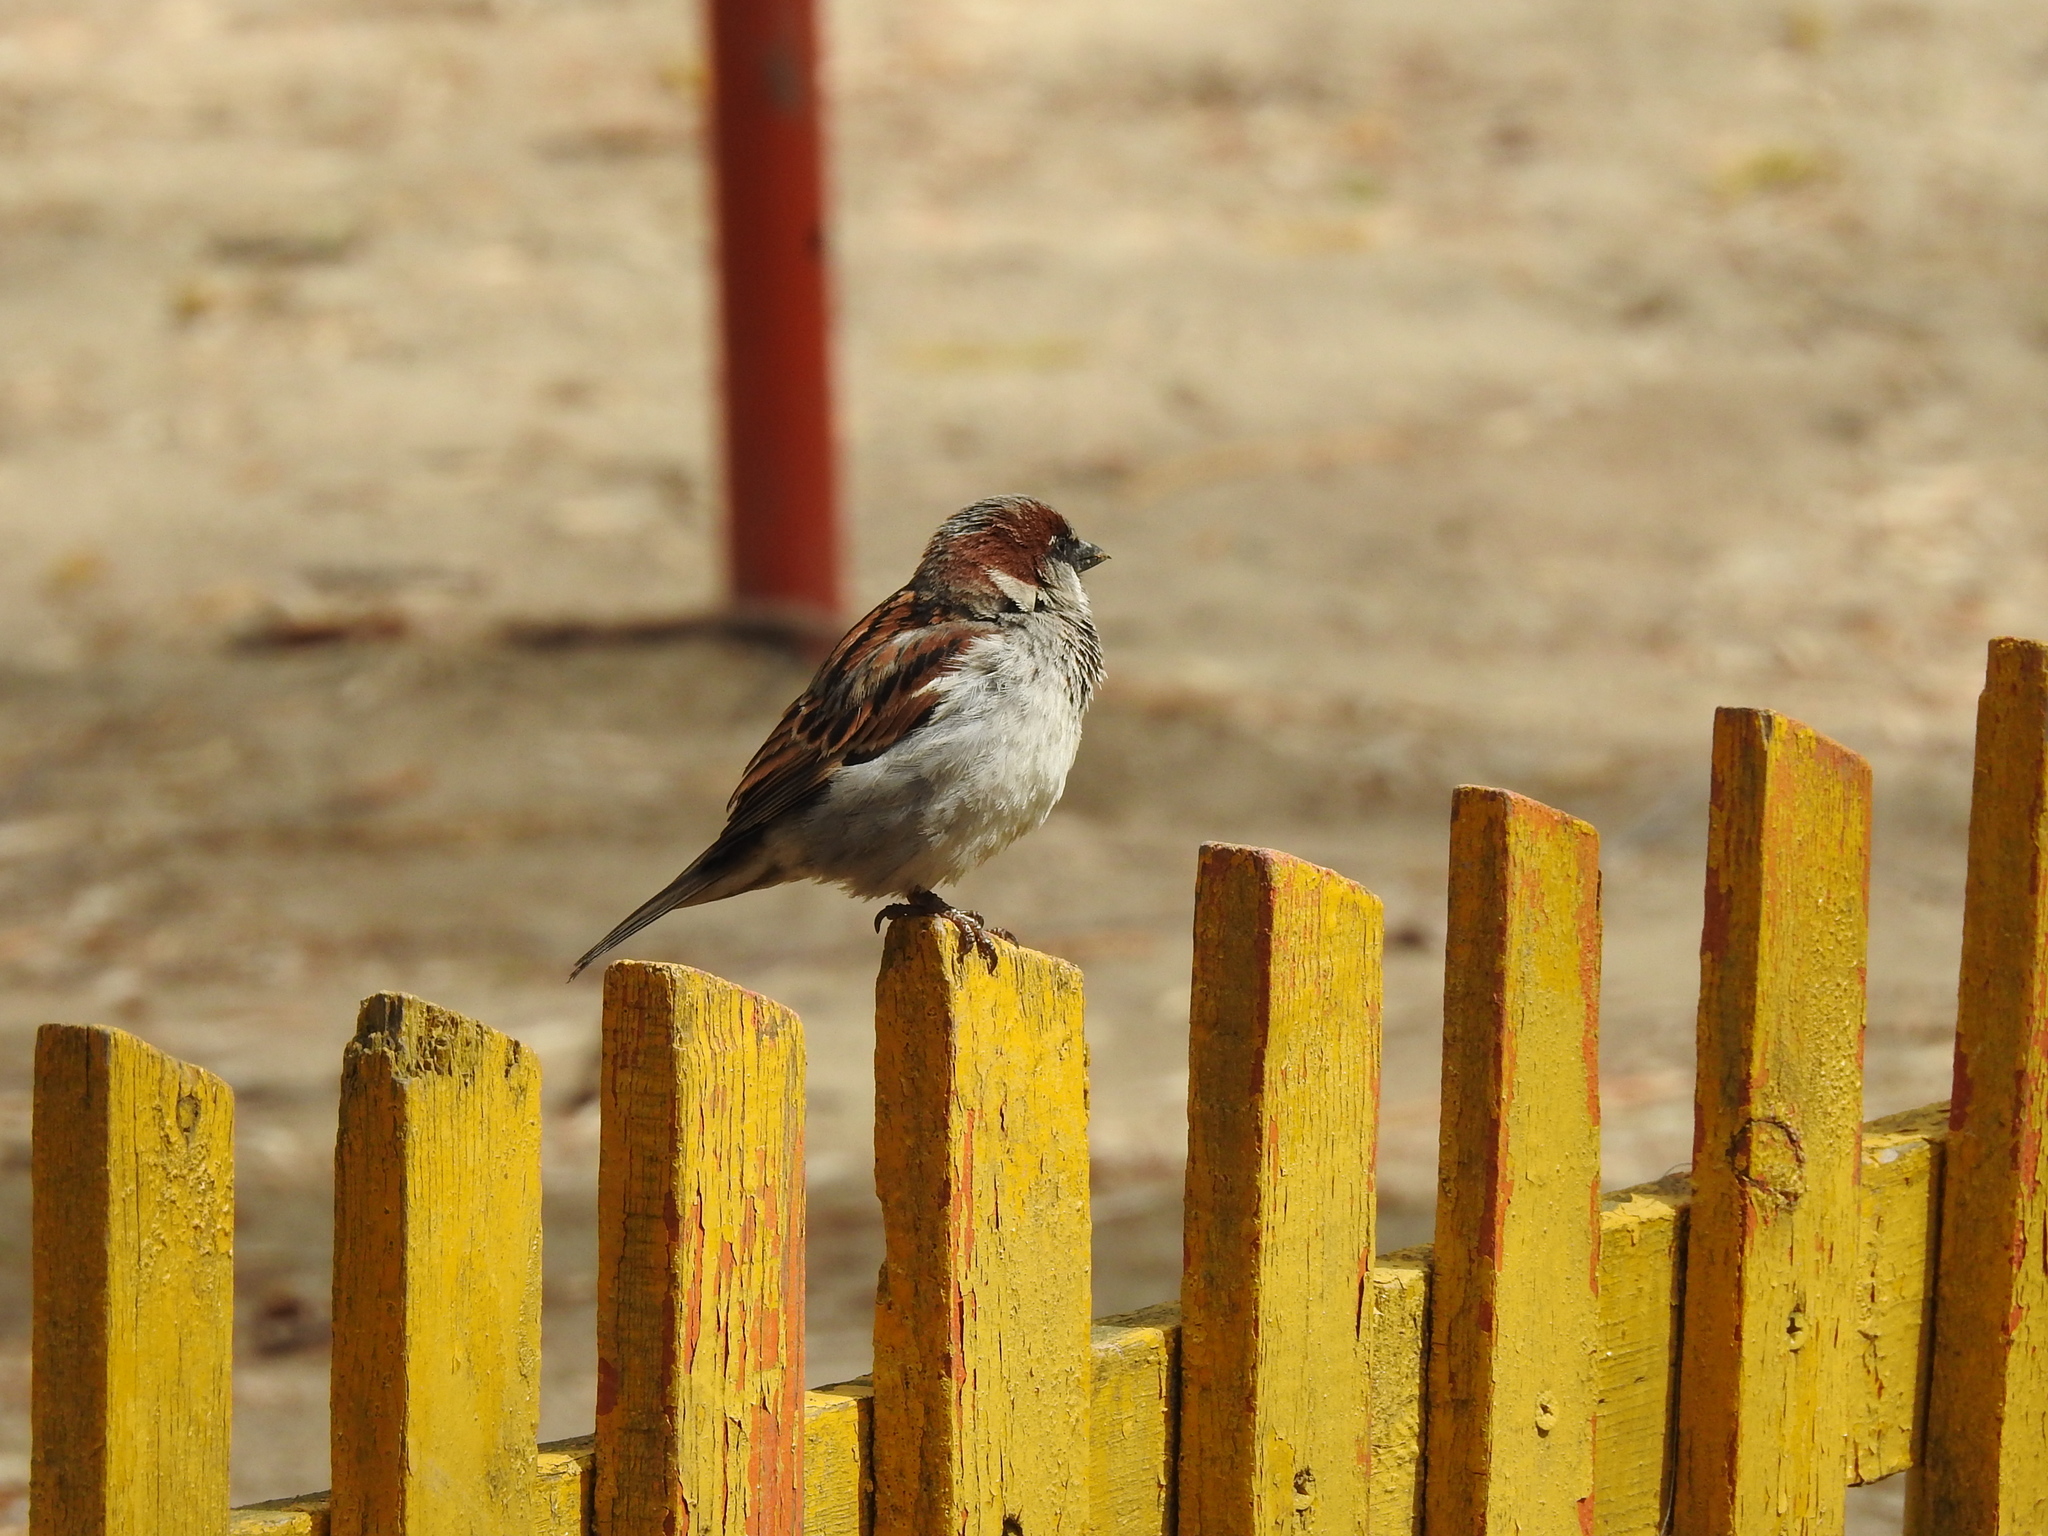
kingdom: Animalia
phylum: Chordata
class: Aves
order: Passeriformes
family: Passeridae
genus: Passer
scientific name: Passer domesticus
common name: House sparrow
